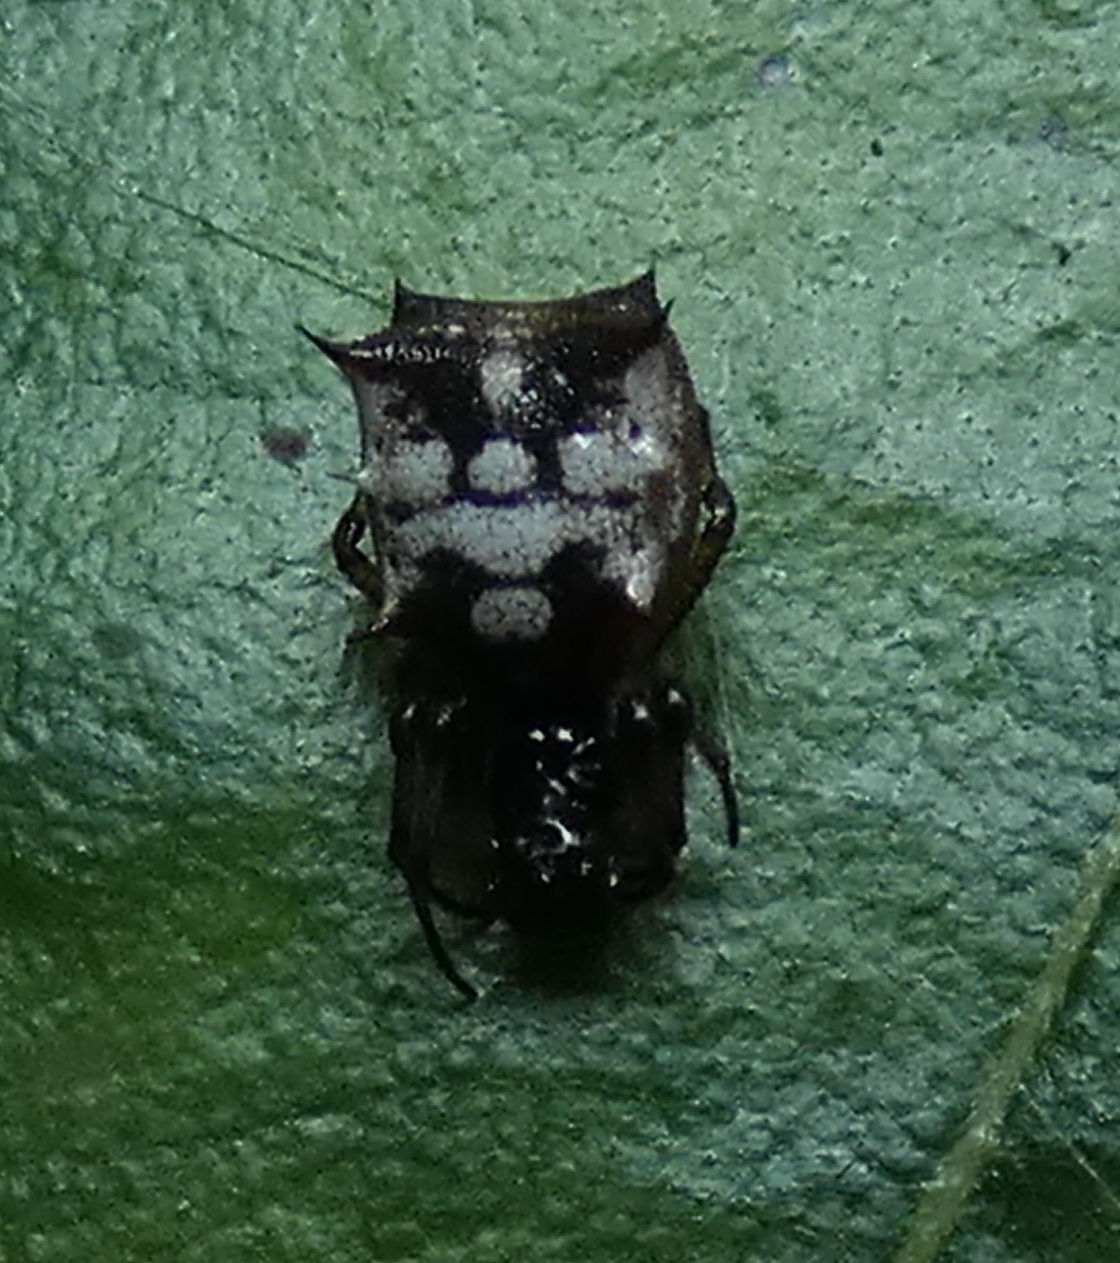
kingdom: Animalia
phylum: Arthropoda
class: Arachnida
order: Araneae
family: Araneidae
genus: Micrathena
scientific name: Micrathena picta
